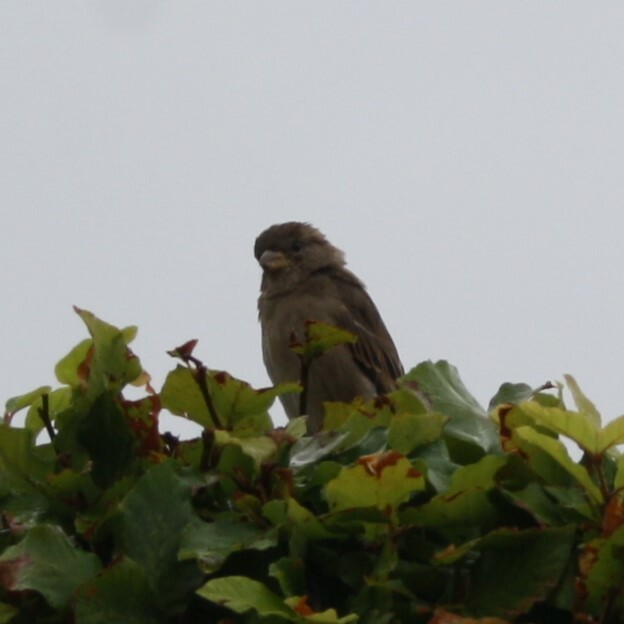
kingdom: Animalia
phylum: Chordata
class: Aves
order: Passeriformes
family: Passeridae
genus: Passer
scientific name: Passer domesticus
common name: House sparrow
